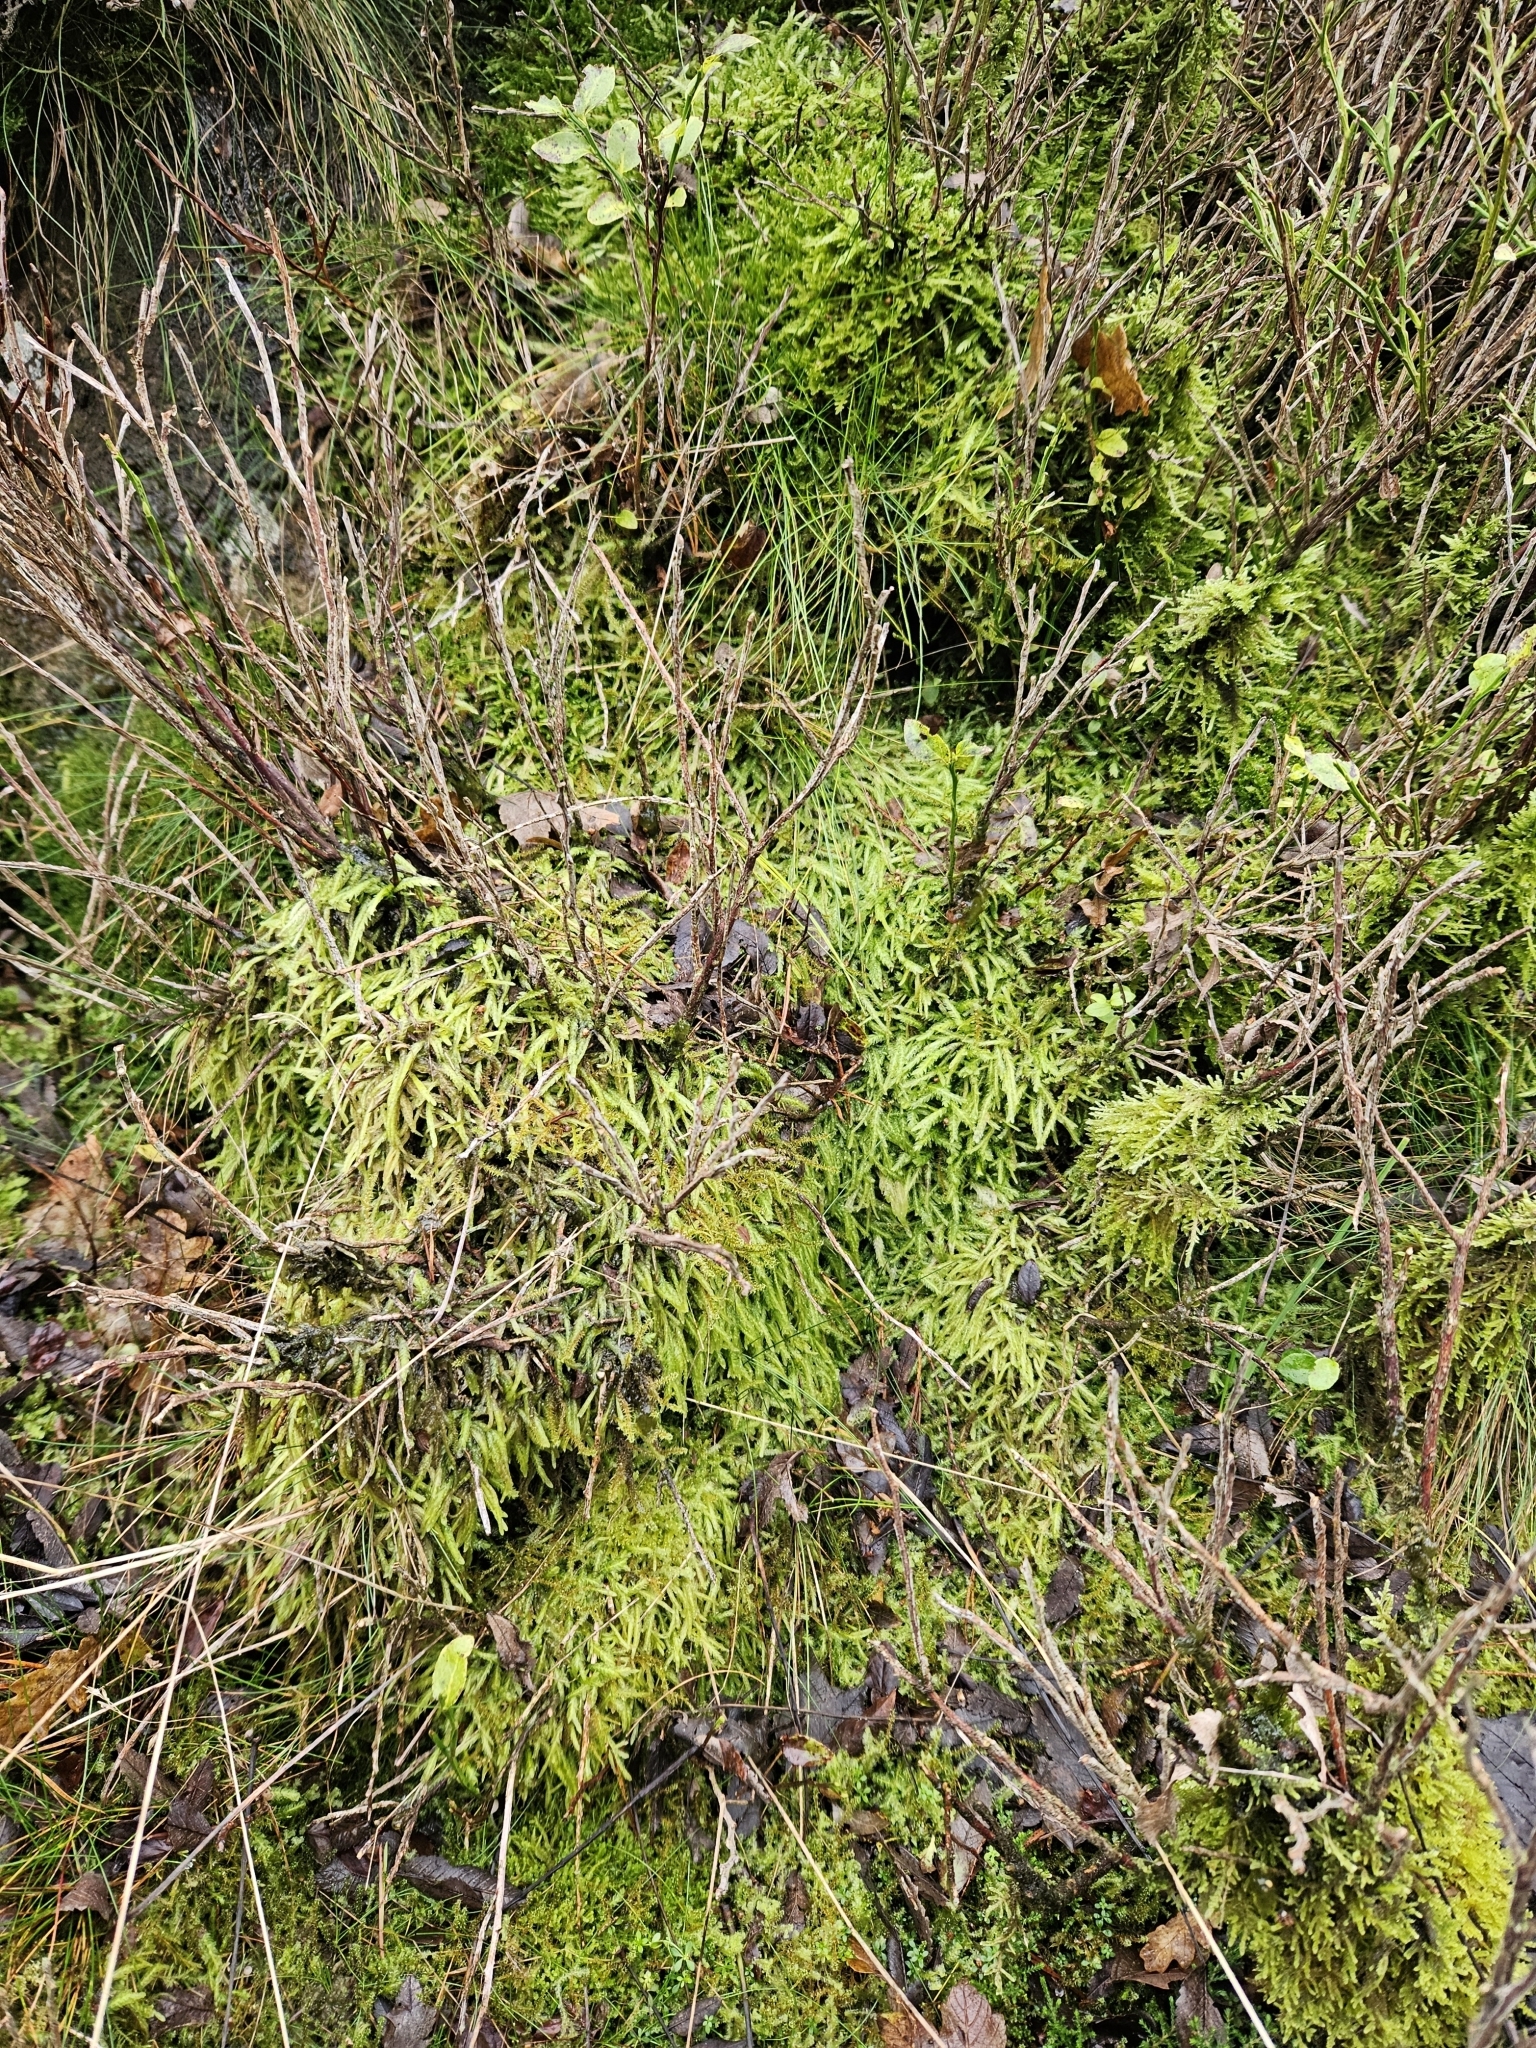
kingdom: Plantae
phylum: Bryophyta
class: Bryopsida
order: Hypnales
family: Plagiotheciaceae
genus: Plagiothecium
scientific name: Plagiothecium undulatum
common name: Waved silk-moss
